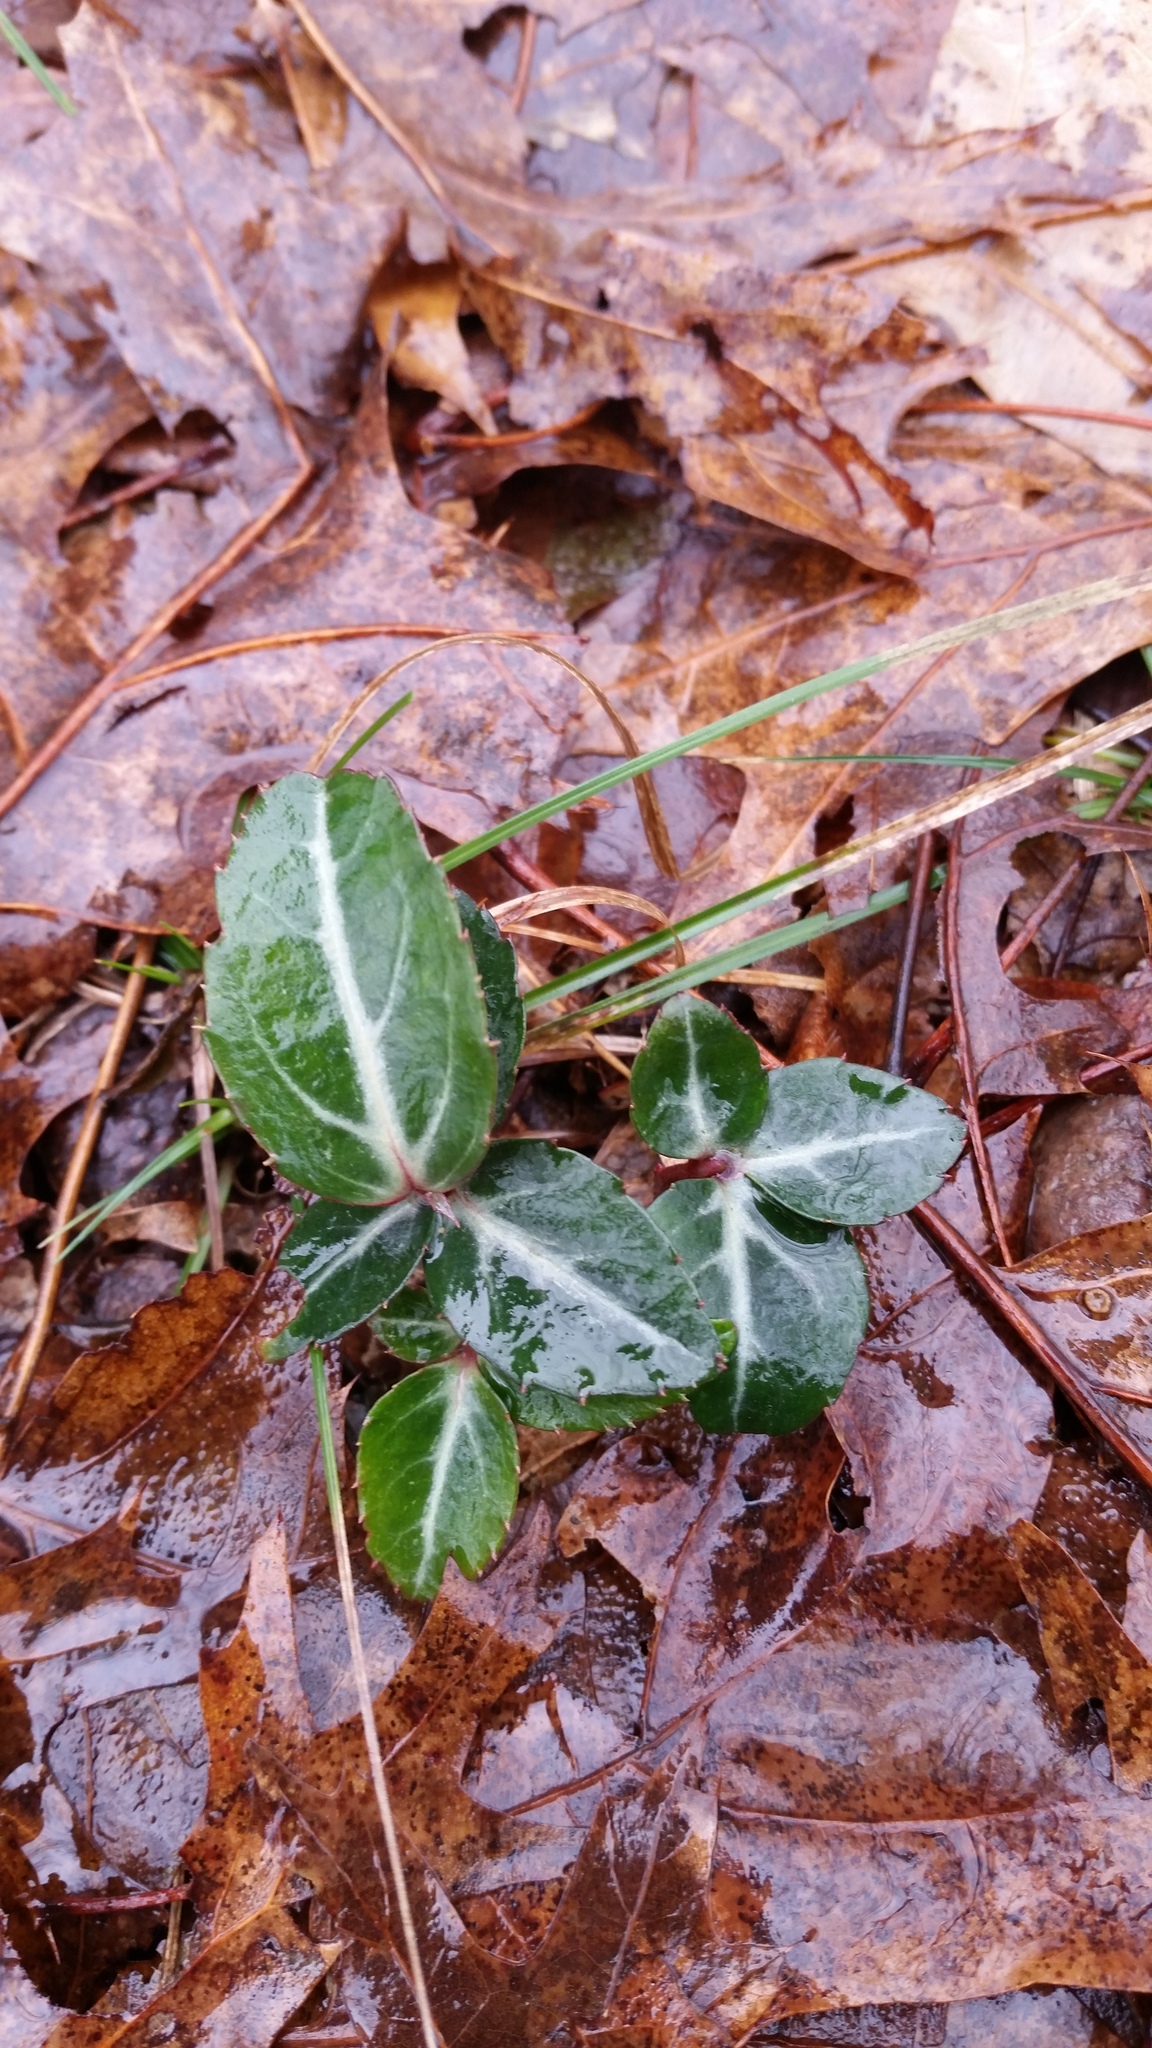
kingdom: Plantae
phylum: Tracheophyta
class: Magnoliopsida
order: Ericales
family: Ericaceae
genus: Chimaphila
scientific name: Chimaphila maculata
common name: Spotted pipsissewa
